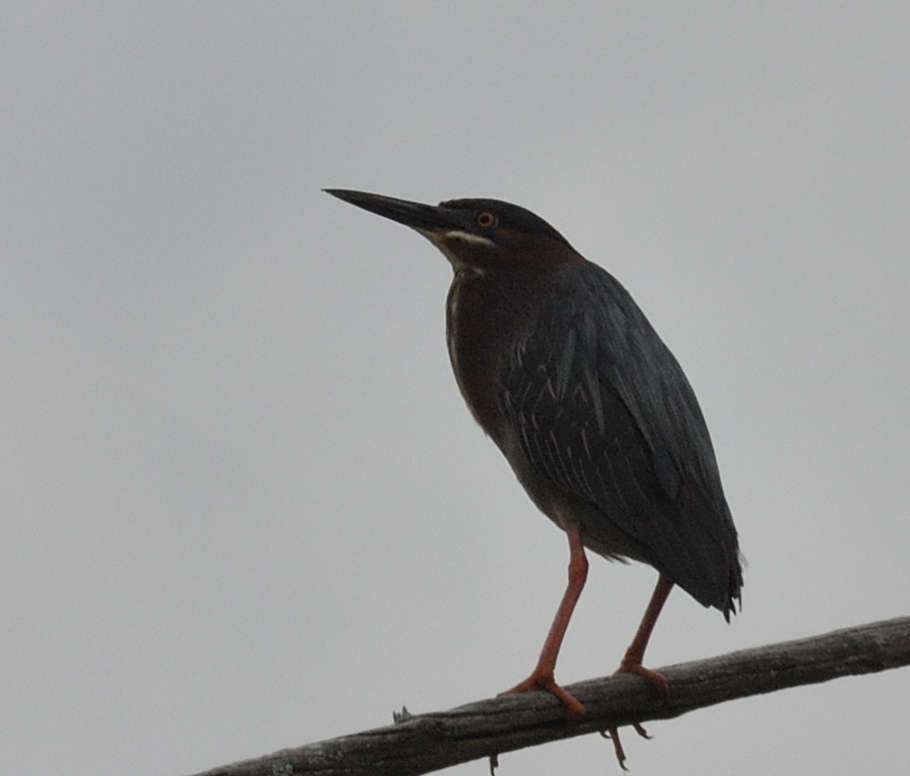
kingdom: Animalia
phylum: Chordata
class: Aves
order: Pelecaniformes
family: Ardeidae
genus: Butorides
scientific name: Butorides virescens
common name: Green heron
